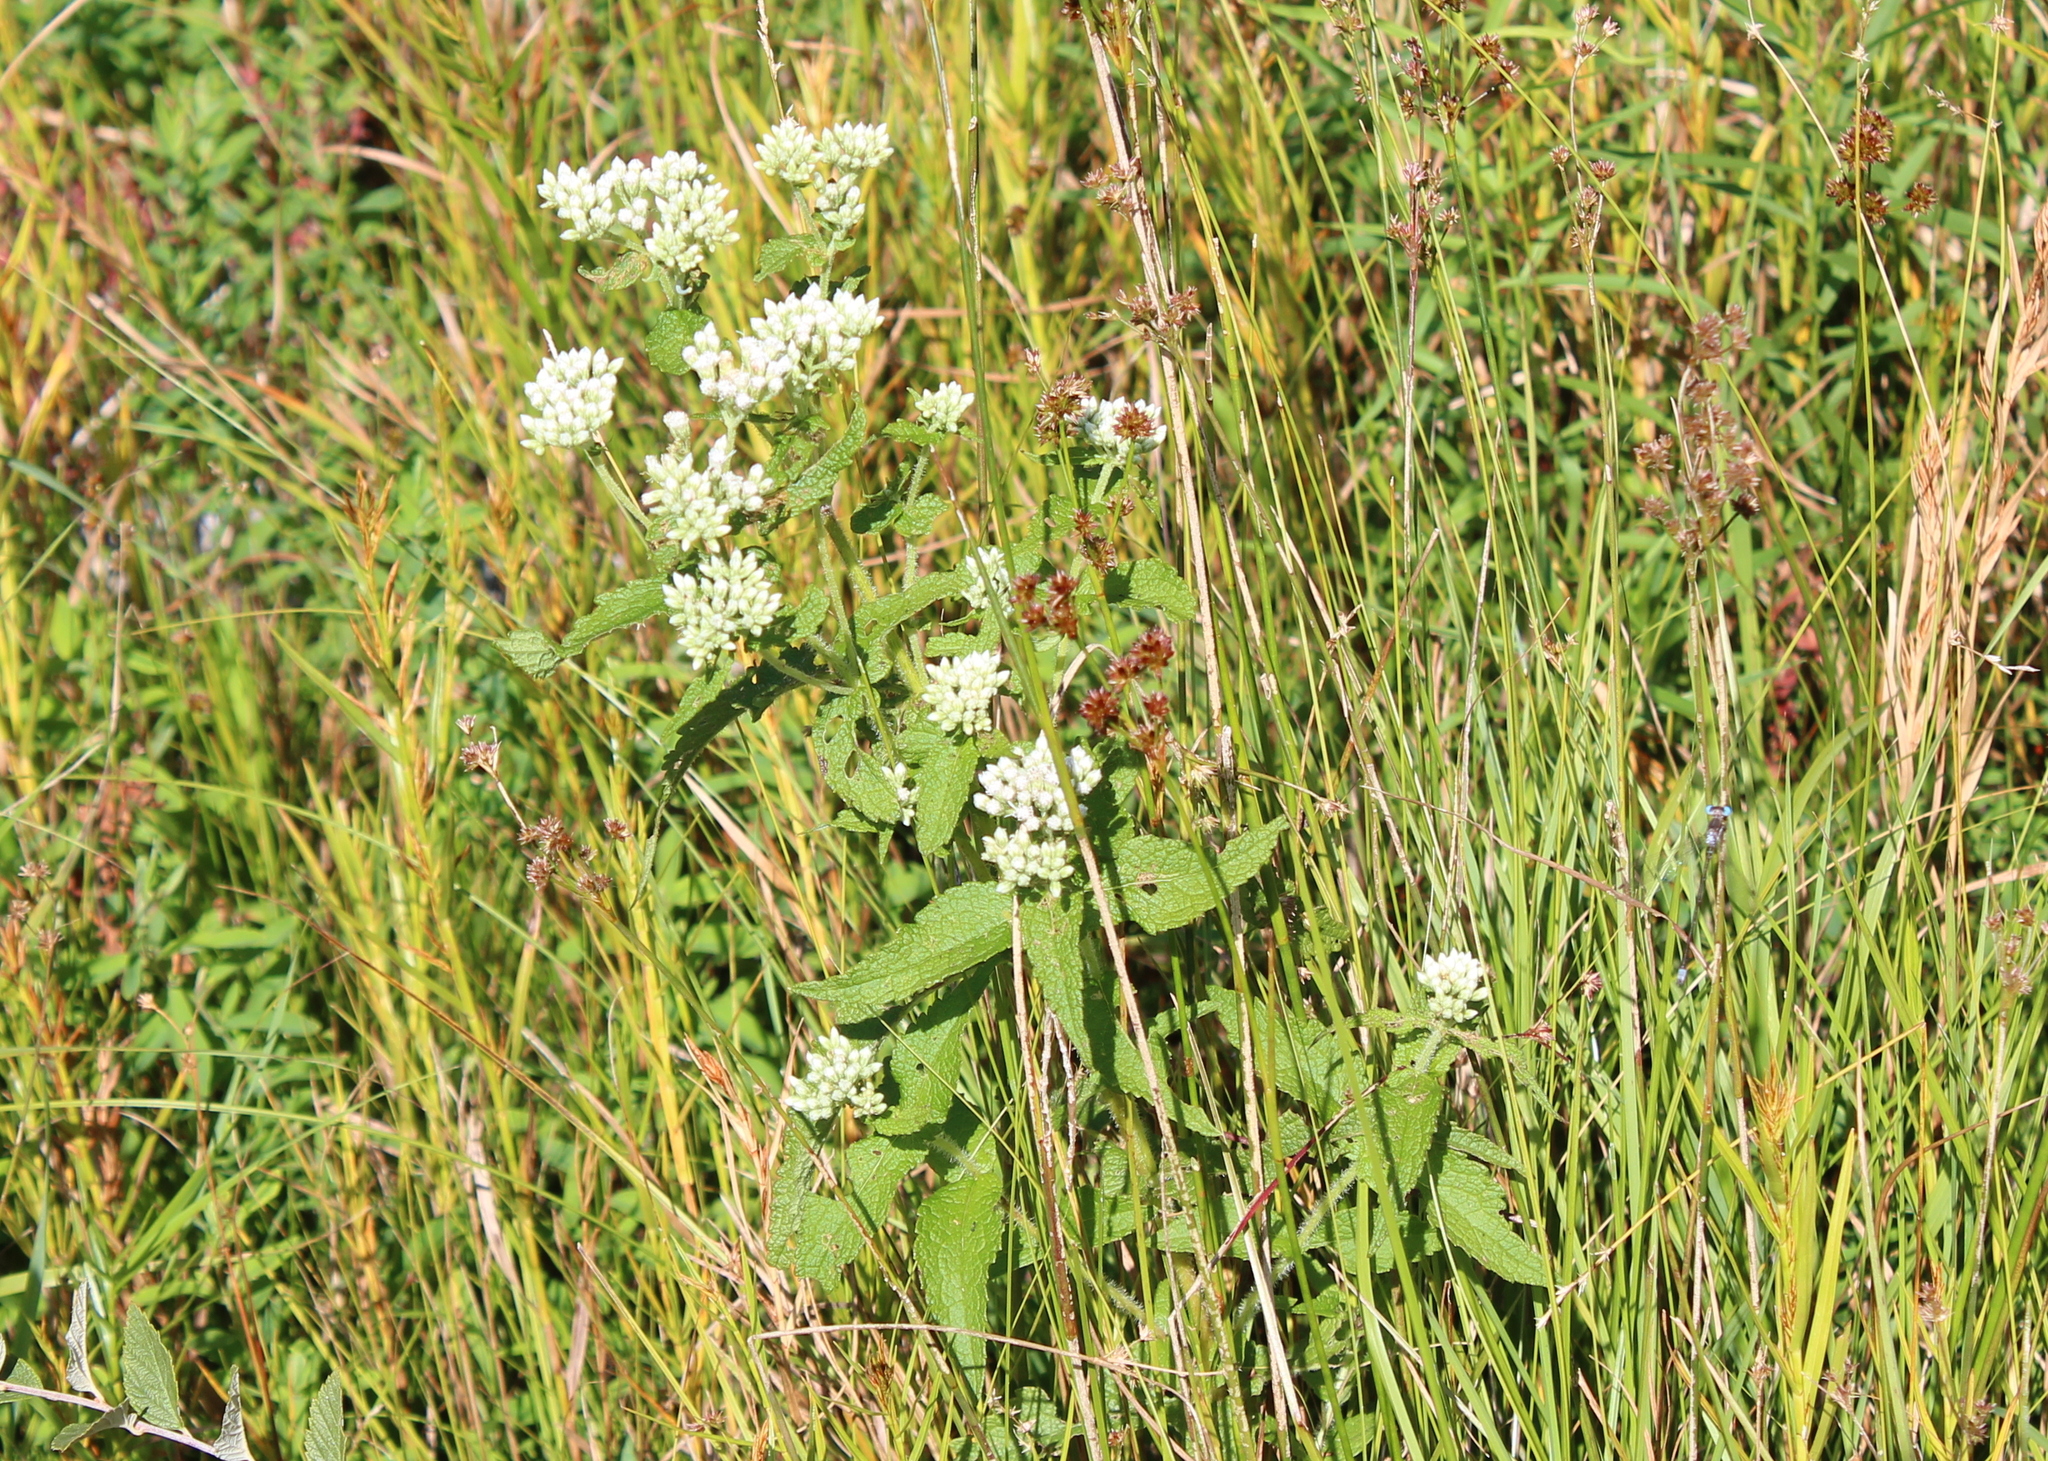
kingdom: Plantae
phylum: Tracheophyta
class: Magnoliopsida
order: Asterales
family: Asteraceae
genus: Eupatorium
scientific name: Eupatorium perfoliatum
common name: Boneset
